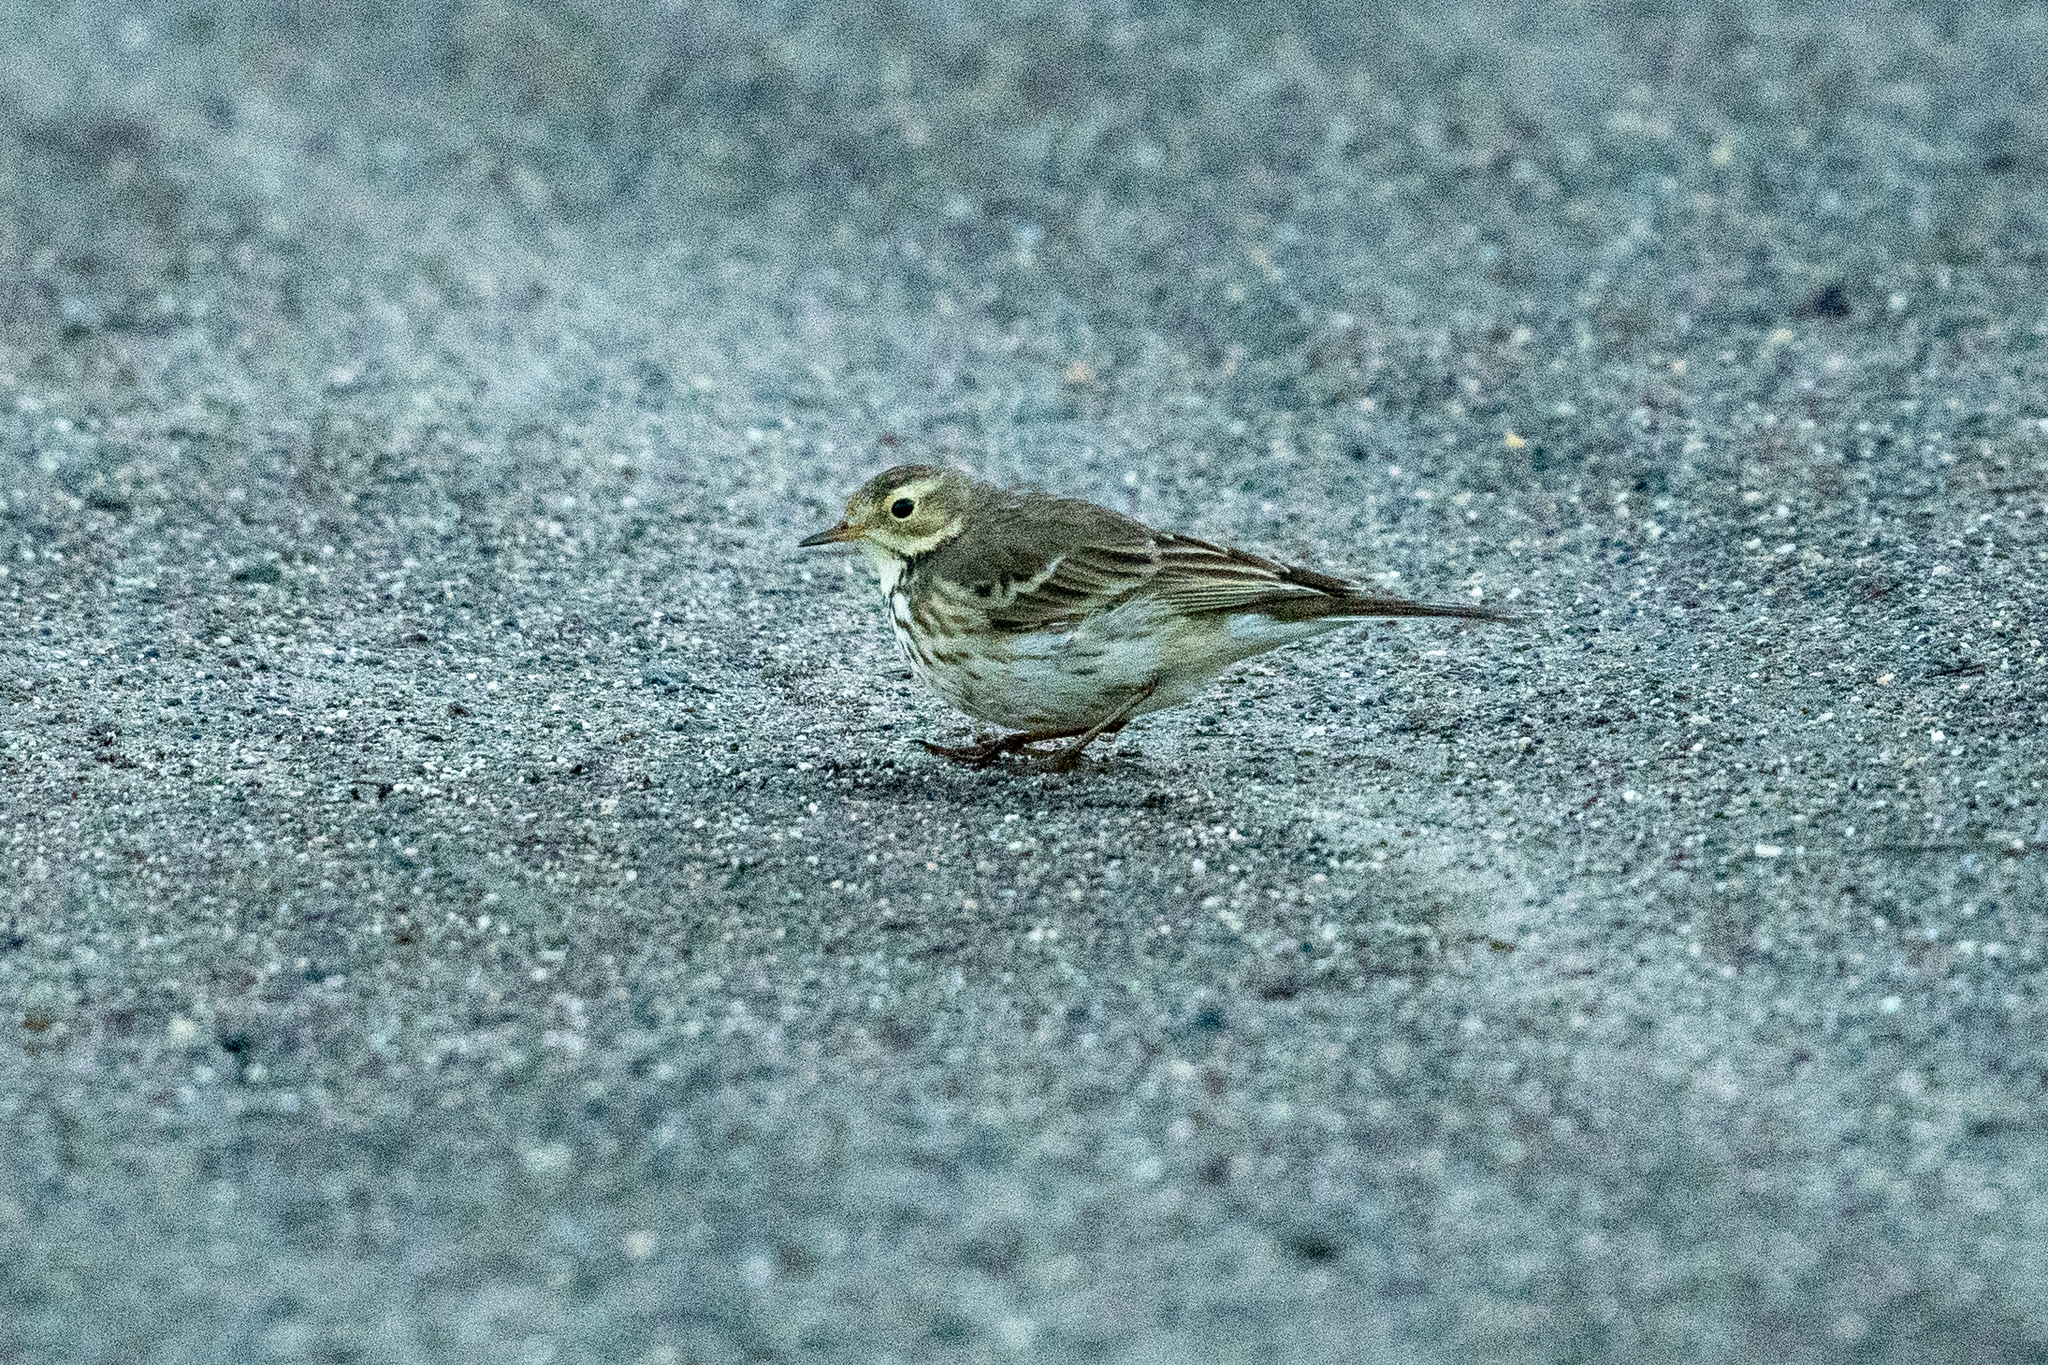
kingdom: Animalia
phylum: Chordata
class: Aves
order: Passeriformes
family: Motacillidae
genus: Anthus
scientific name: Anthus rubescens
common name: Buff-bellied pipit
